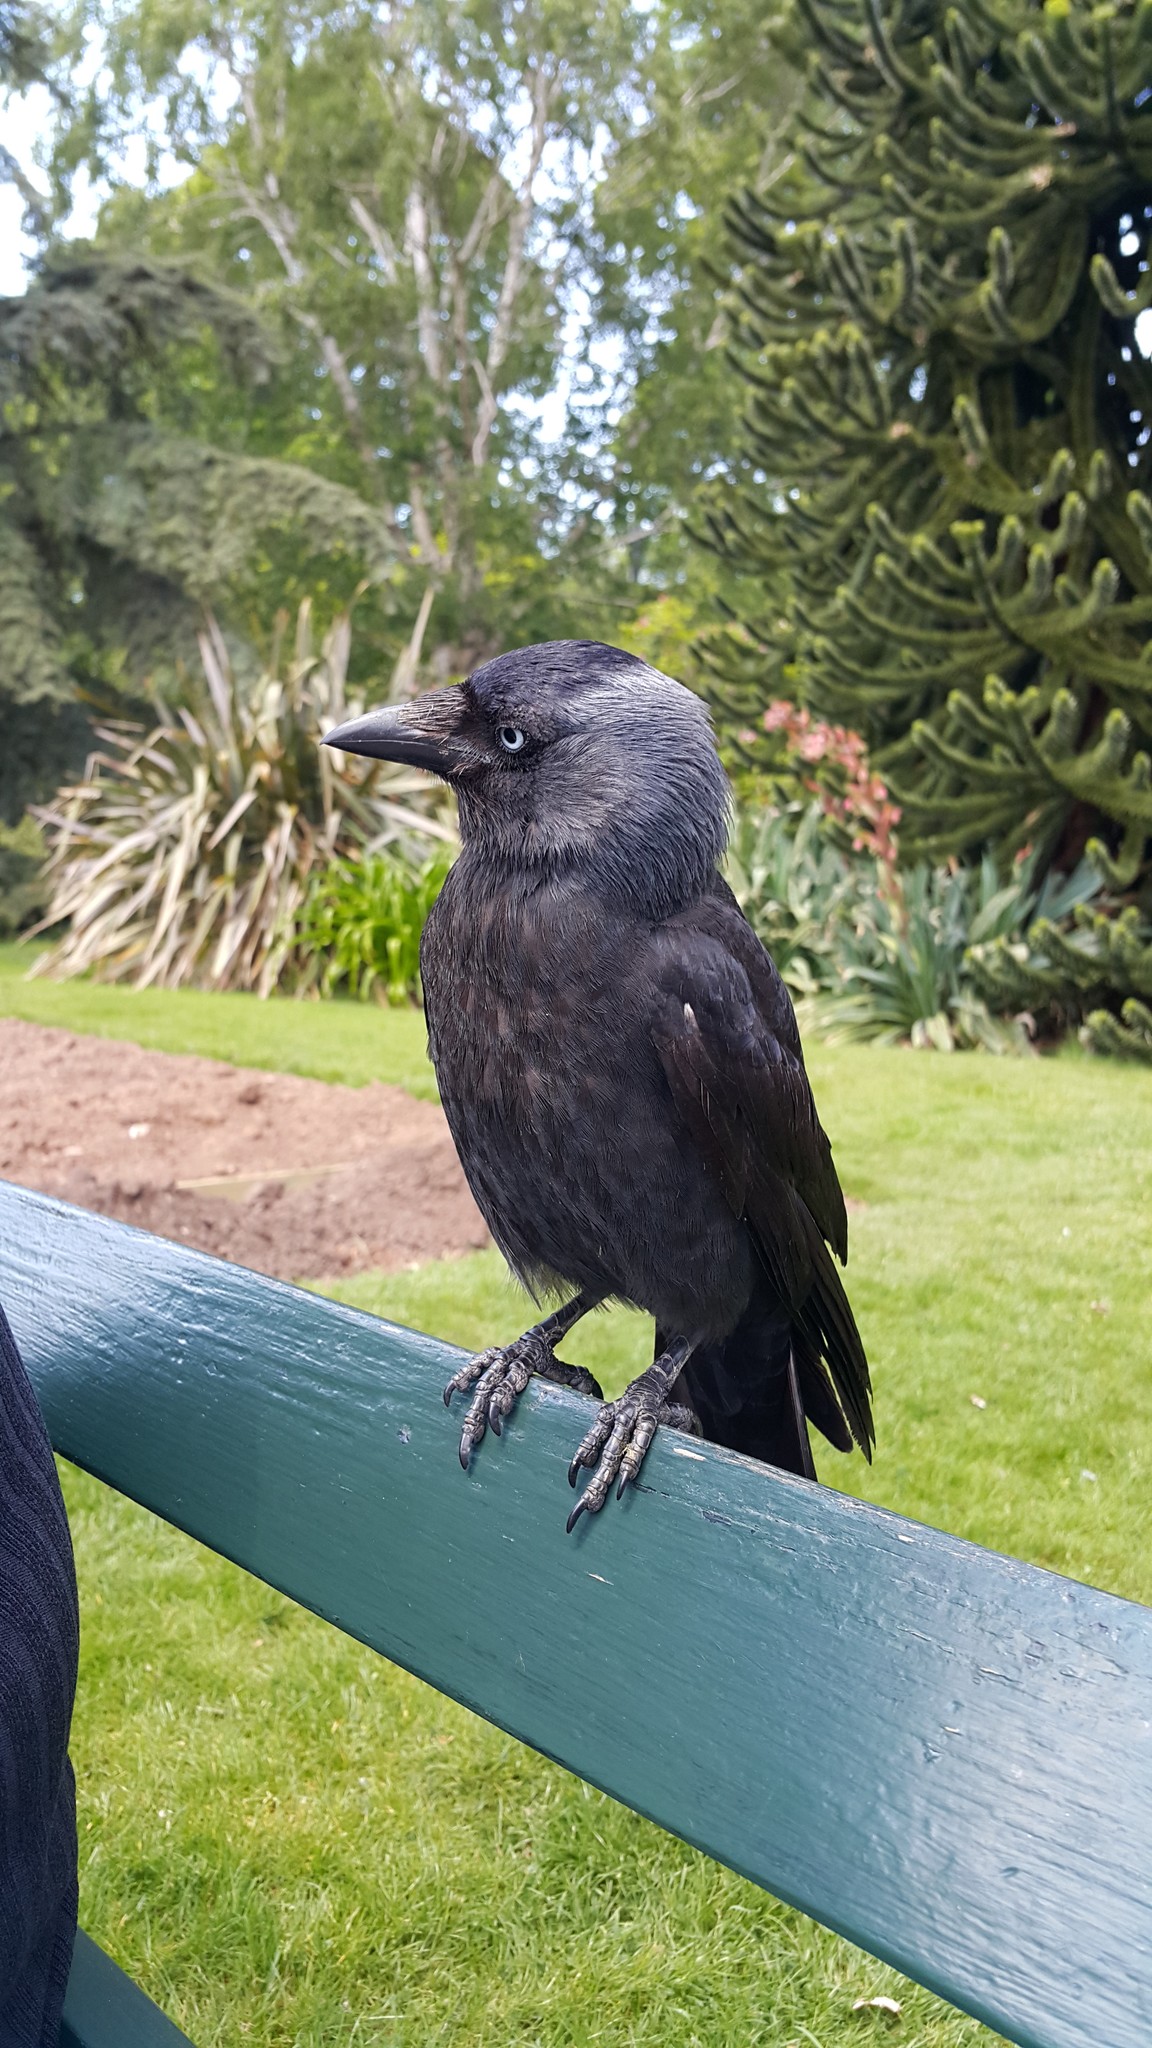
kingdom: Animalia
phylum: Chordata
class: Aves
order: Passeriformes
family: Corvidae
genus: Coloeus
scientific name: Coloeus monedula
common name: Western jackdaw
